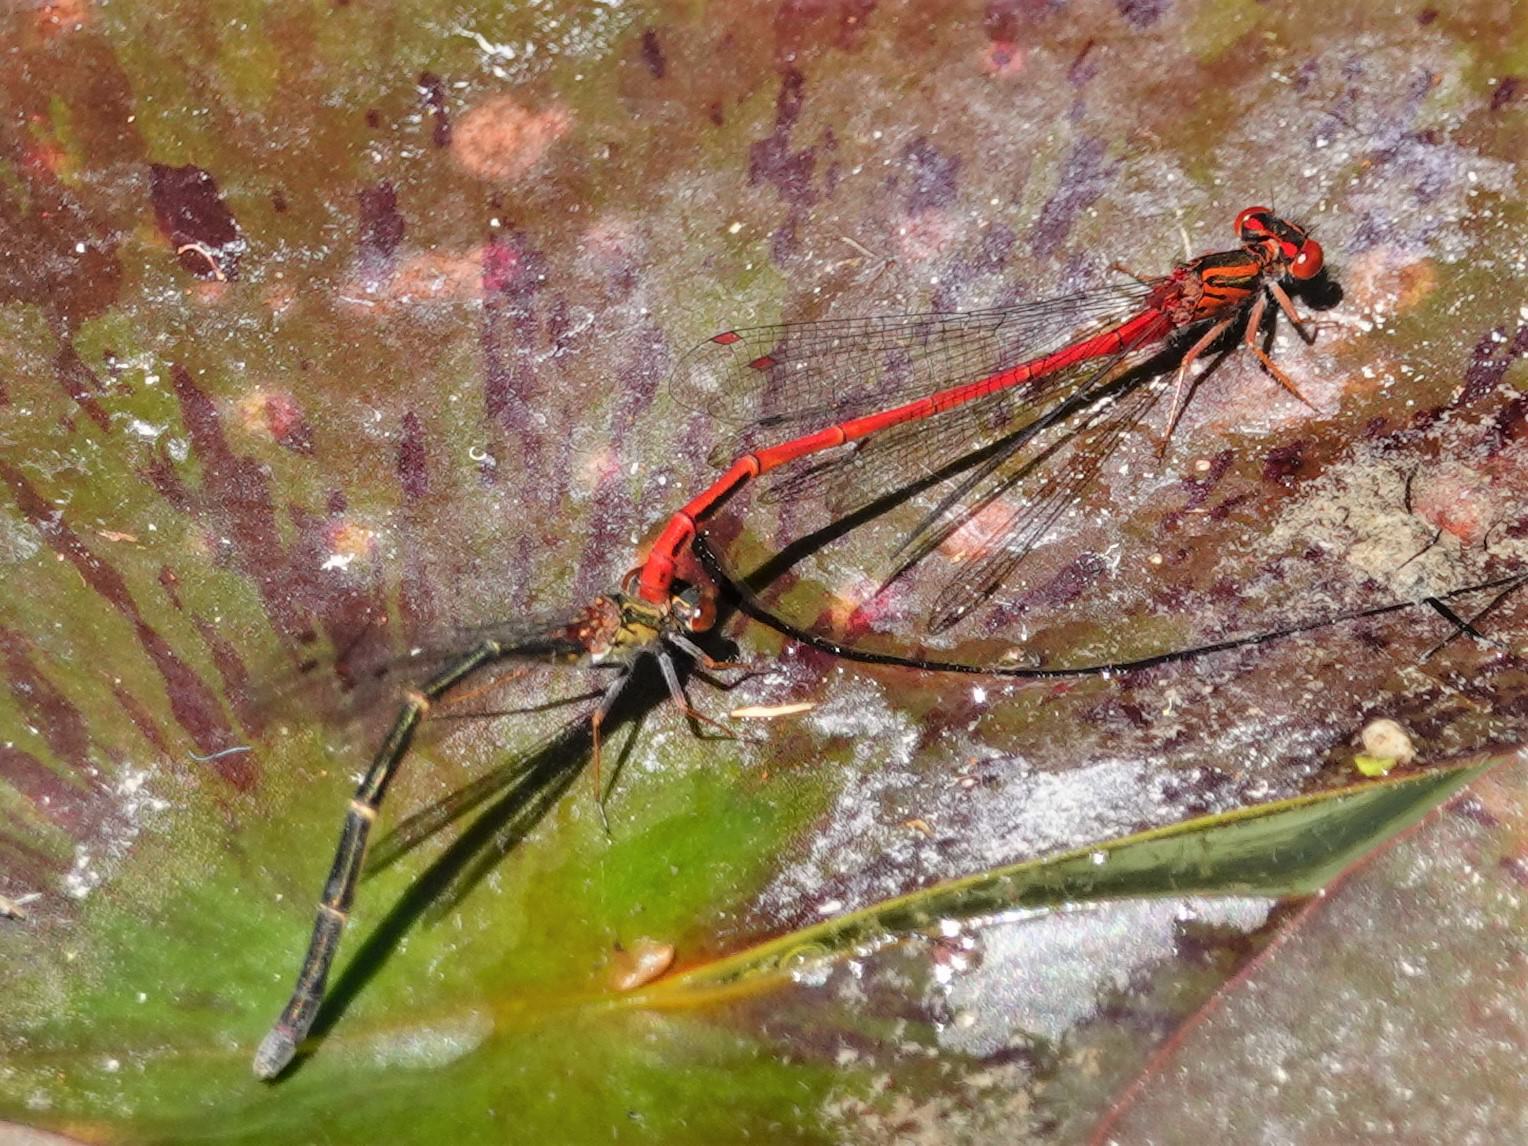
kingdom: Animalia
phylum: Arthropoda
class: Insecta
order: Odonata
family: Coenagrionidae
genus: Xanthocnemis
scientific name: Xanthocnemis zealandica
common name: Common redcoat damselfly
